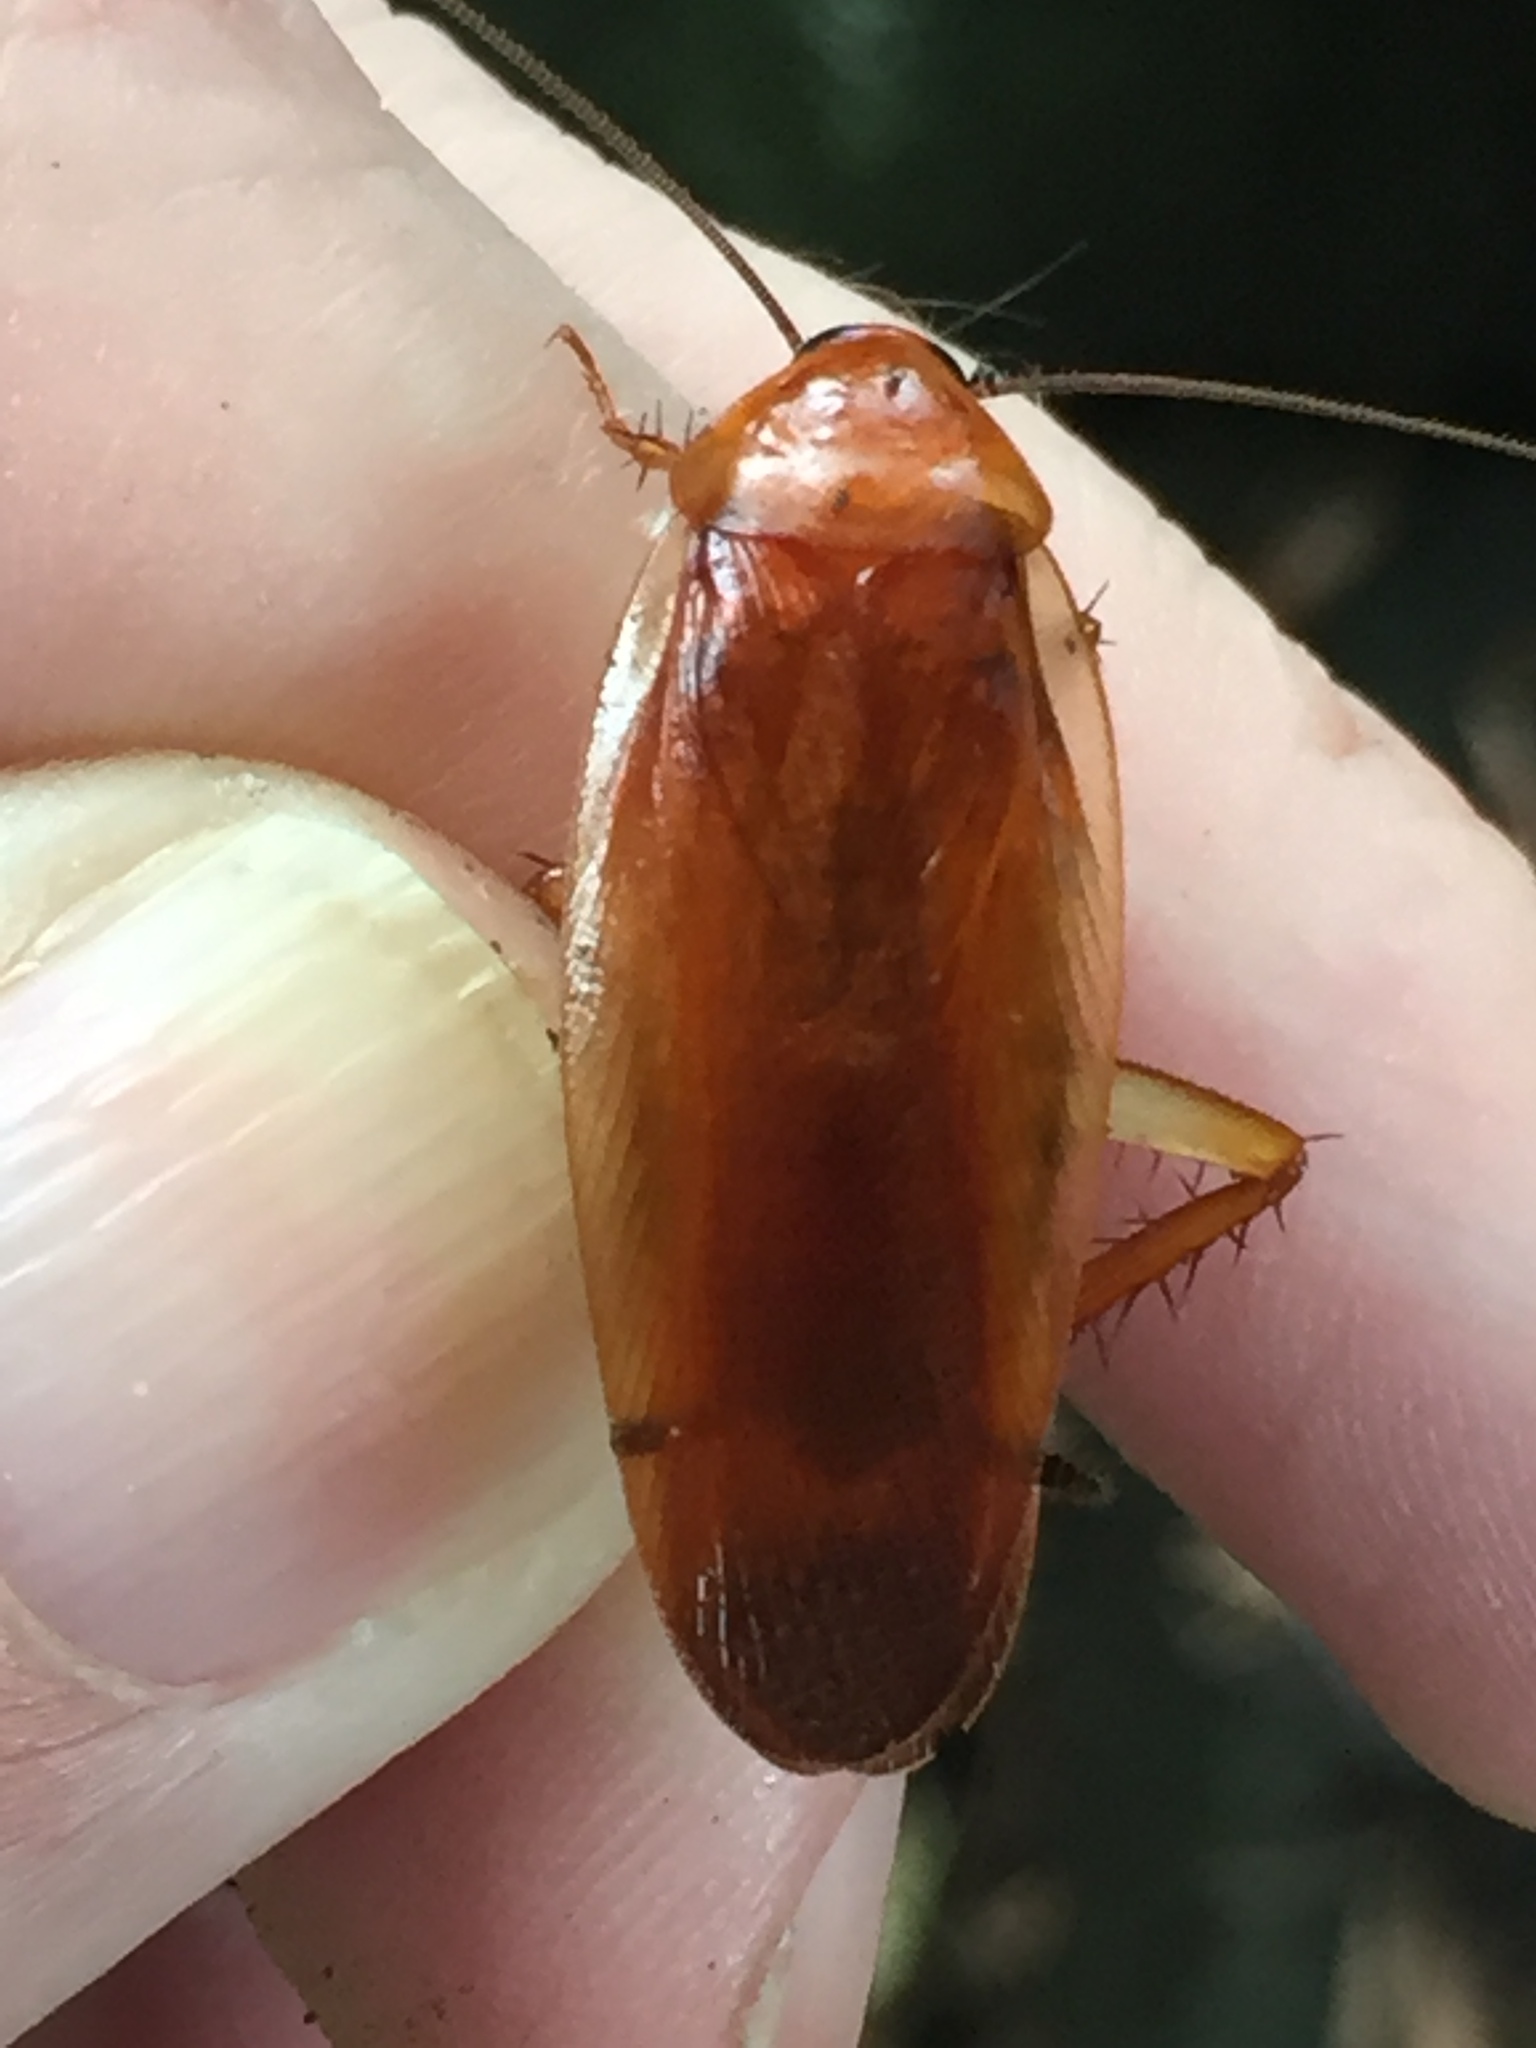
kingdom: Animalia
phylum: Arthropoda
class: Insecta
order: Blattodea
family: Ectobiidae
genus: Neotemnopteryx
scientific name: Neotemnopteryx fulva
